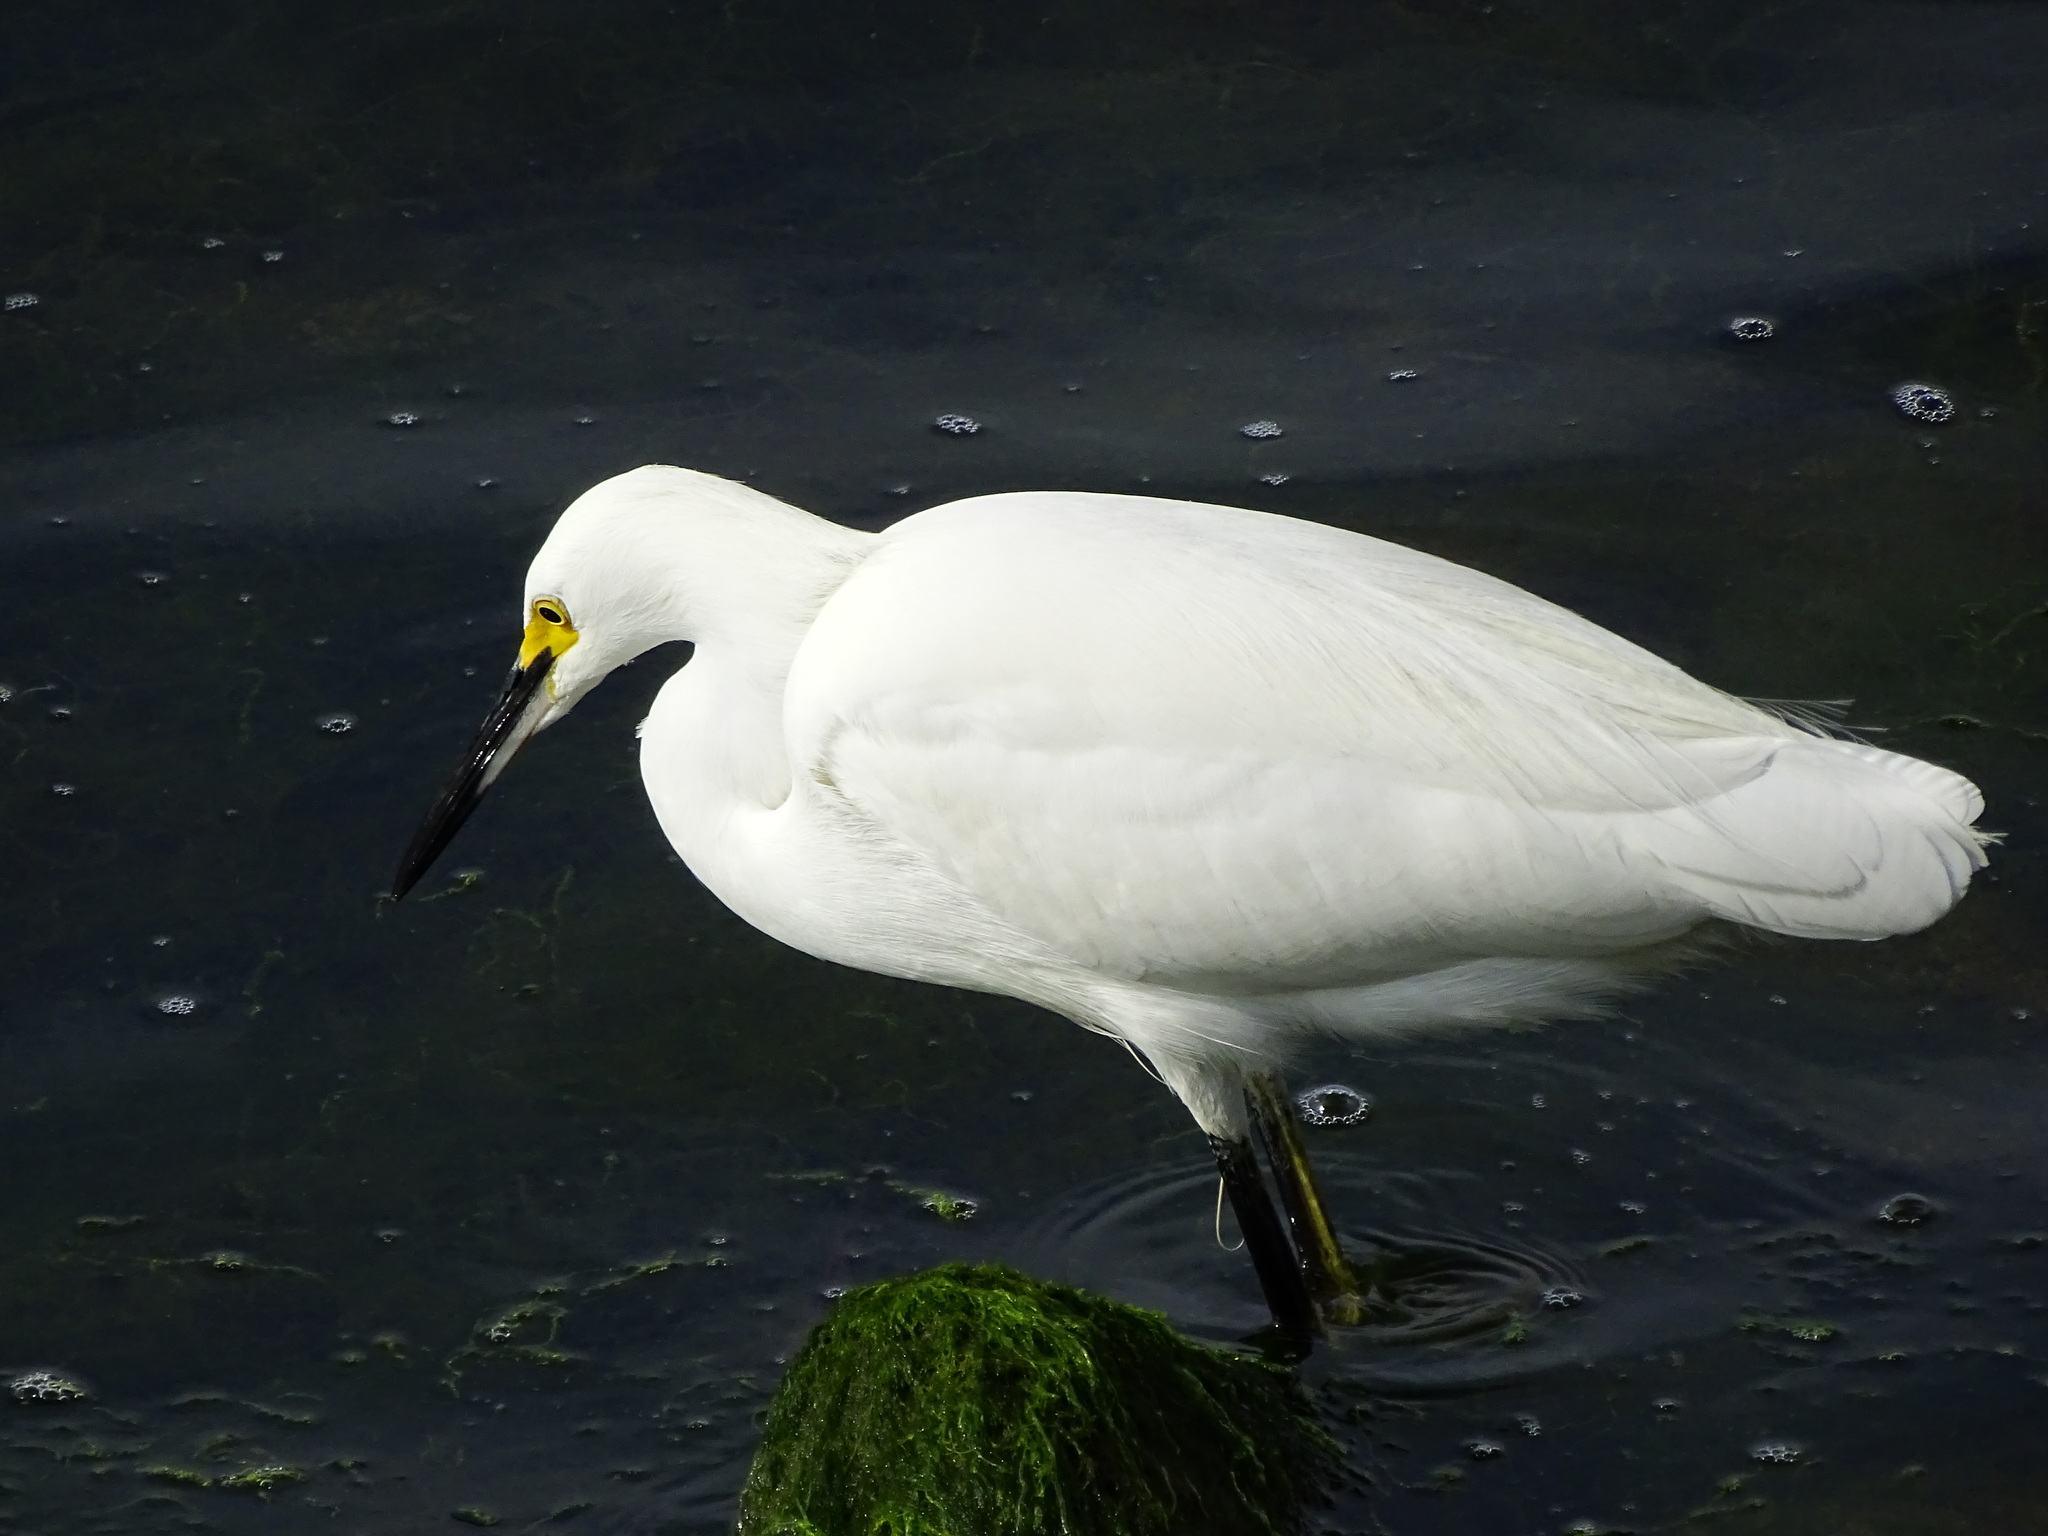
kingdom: Animalia
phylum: Chordata
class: Aves
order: Pelecaniformes
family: Ardeidae
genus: Egretta
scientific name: Egretta thula
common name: Snowy egret
